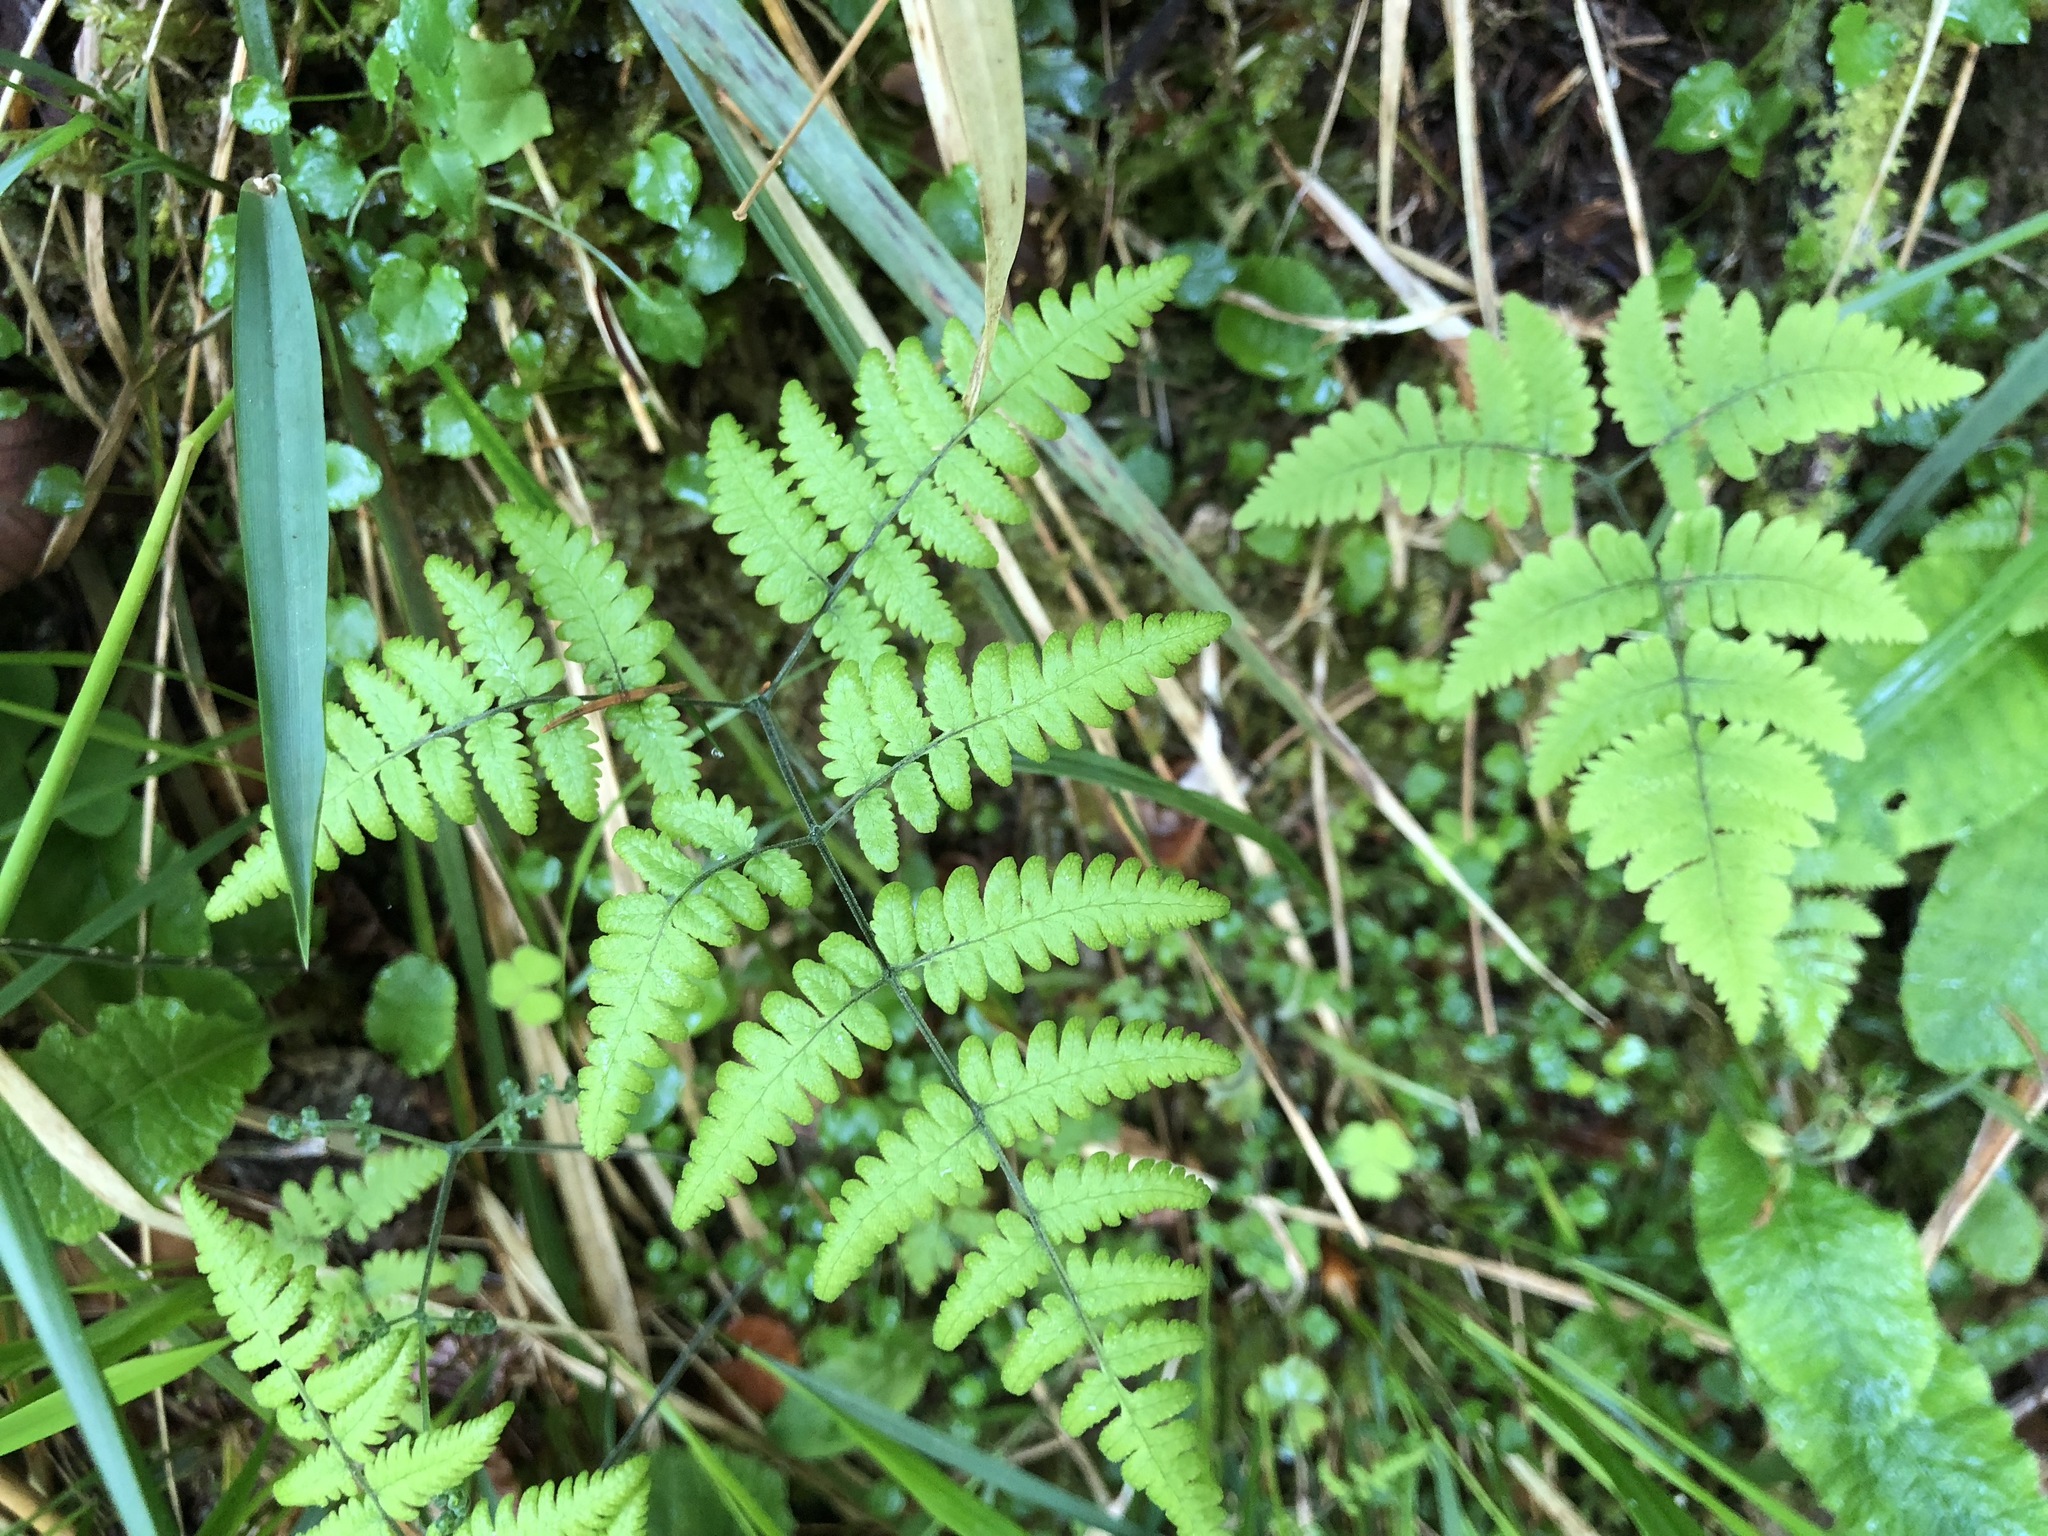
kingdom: Plantae
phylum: Tracheophyta
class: Polypodiopsida
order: Polypodiales
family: Cystopteridaceae
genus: Gymnocarpium
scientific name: Gymnocarpium robertianum
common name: Limestone fern
